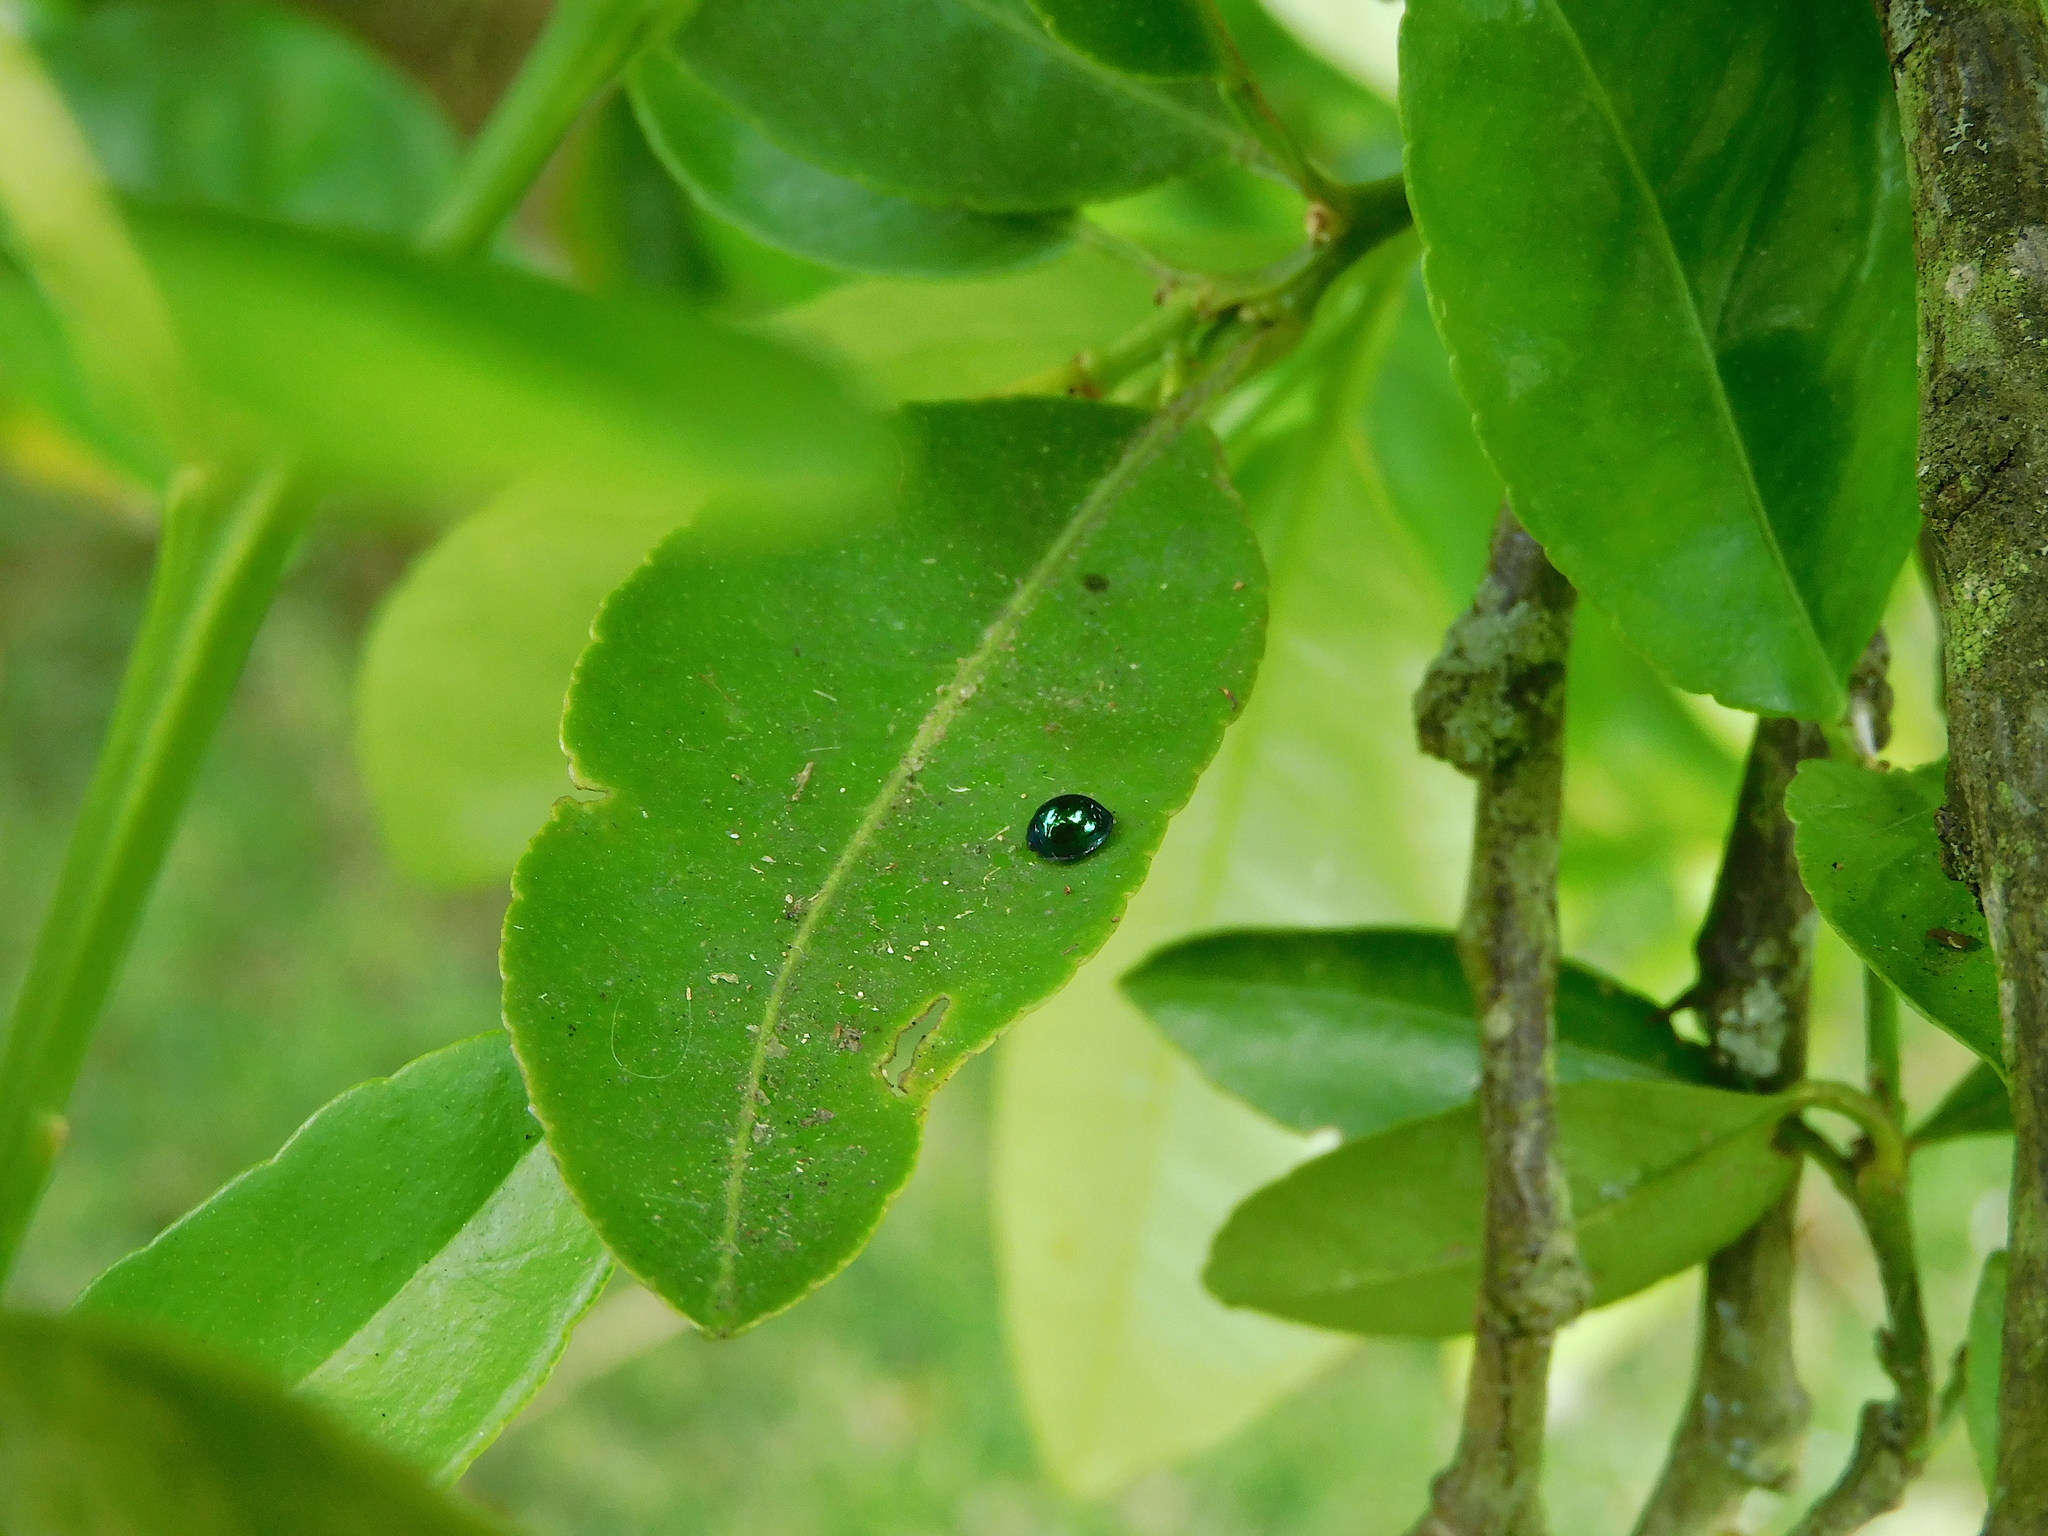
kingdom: Animalia
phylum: Arthropoda
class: Insecta
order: Coleoptera
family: Coccinellidae
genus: Halmus
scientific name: Halmus chalybeus
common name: Steel blue ladybird beetle
